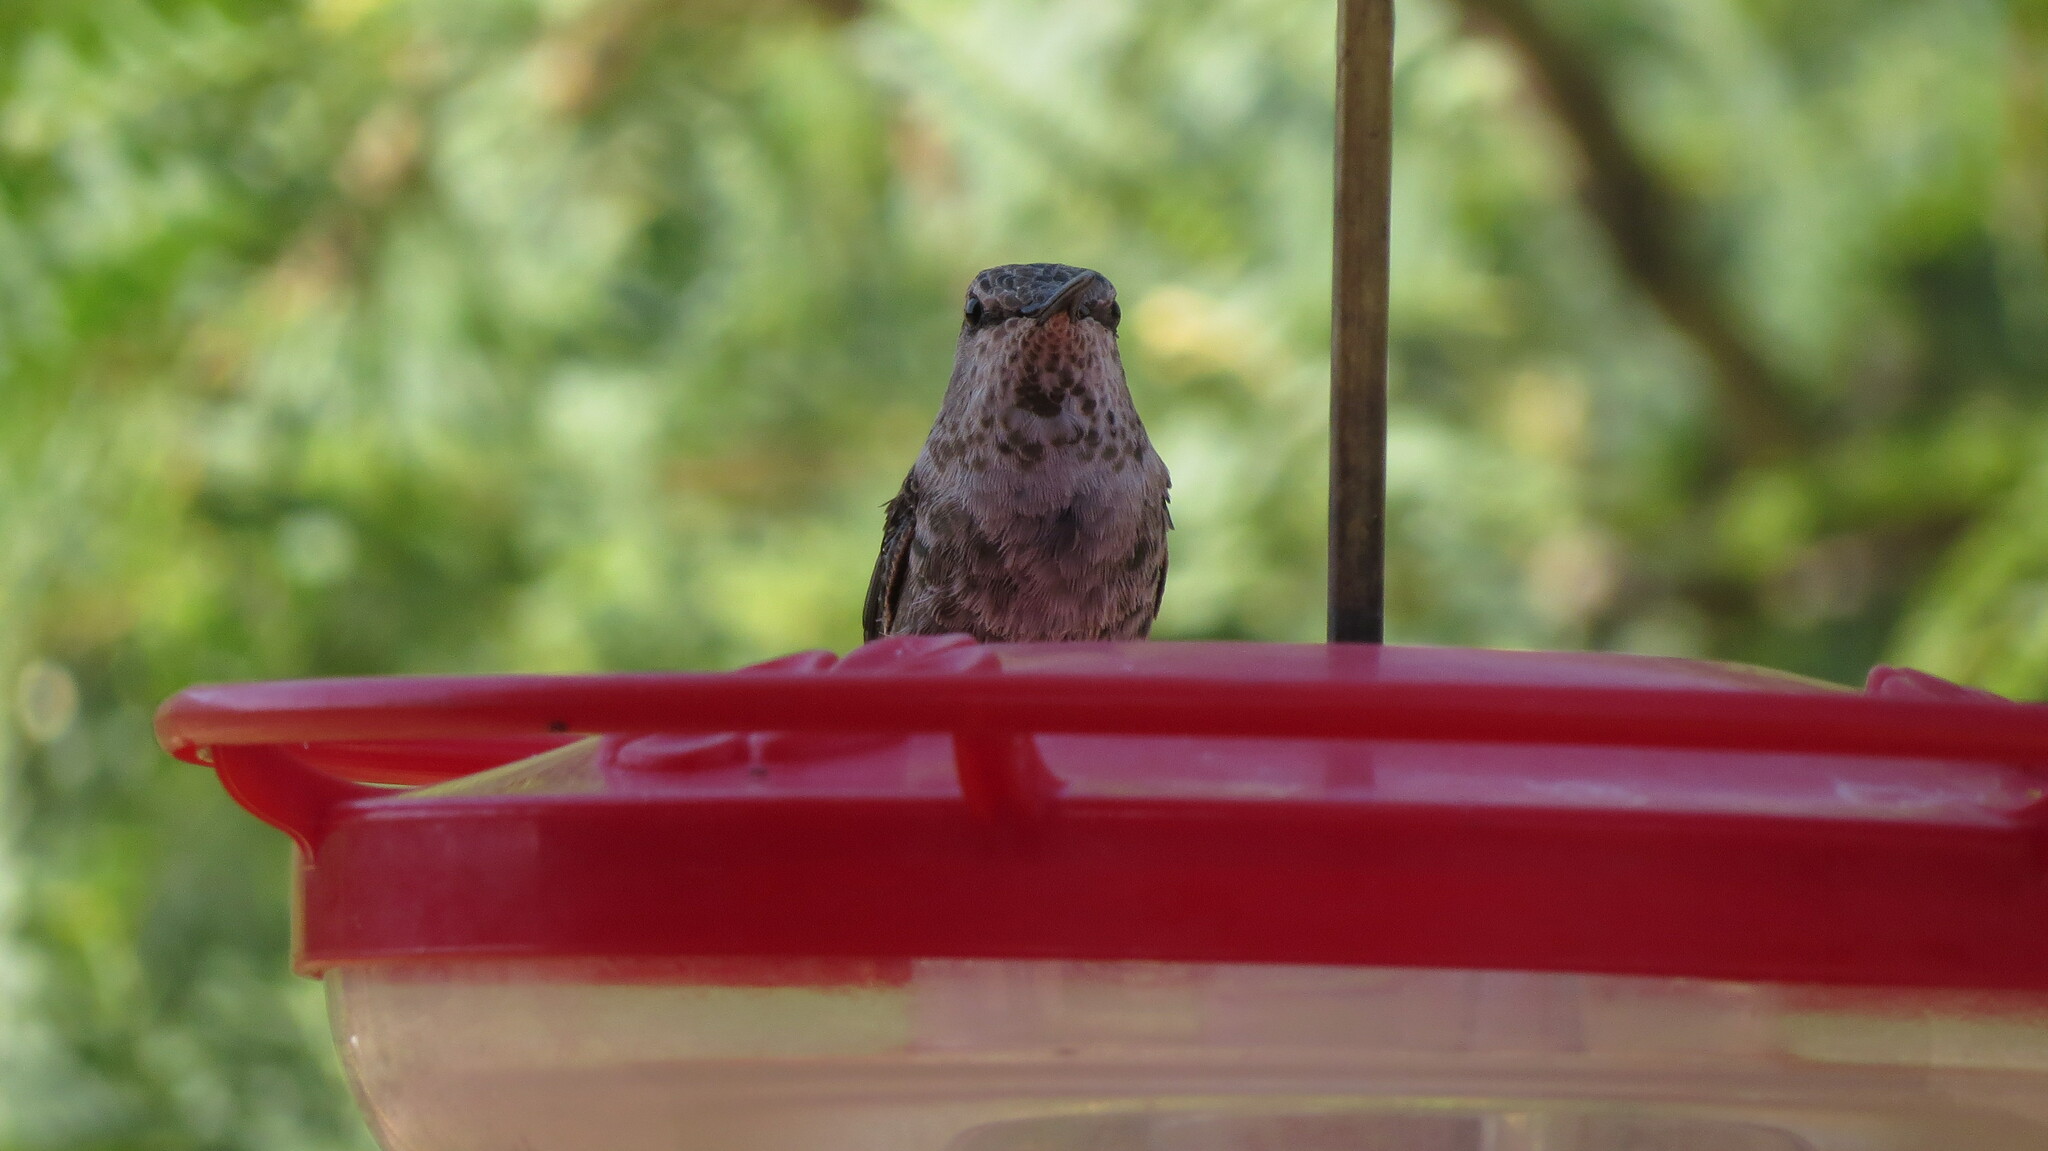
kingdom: Animalia
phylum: Chordata
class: Aves
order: Apodiformes
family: Trochilidae
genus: Archilochus
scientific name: Archilochus alexandri
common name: Black-chinned hummingbird
